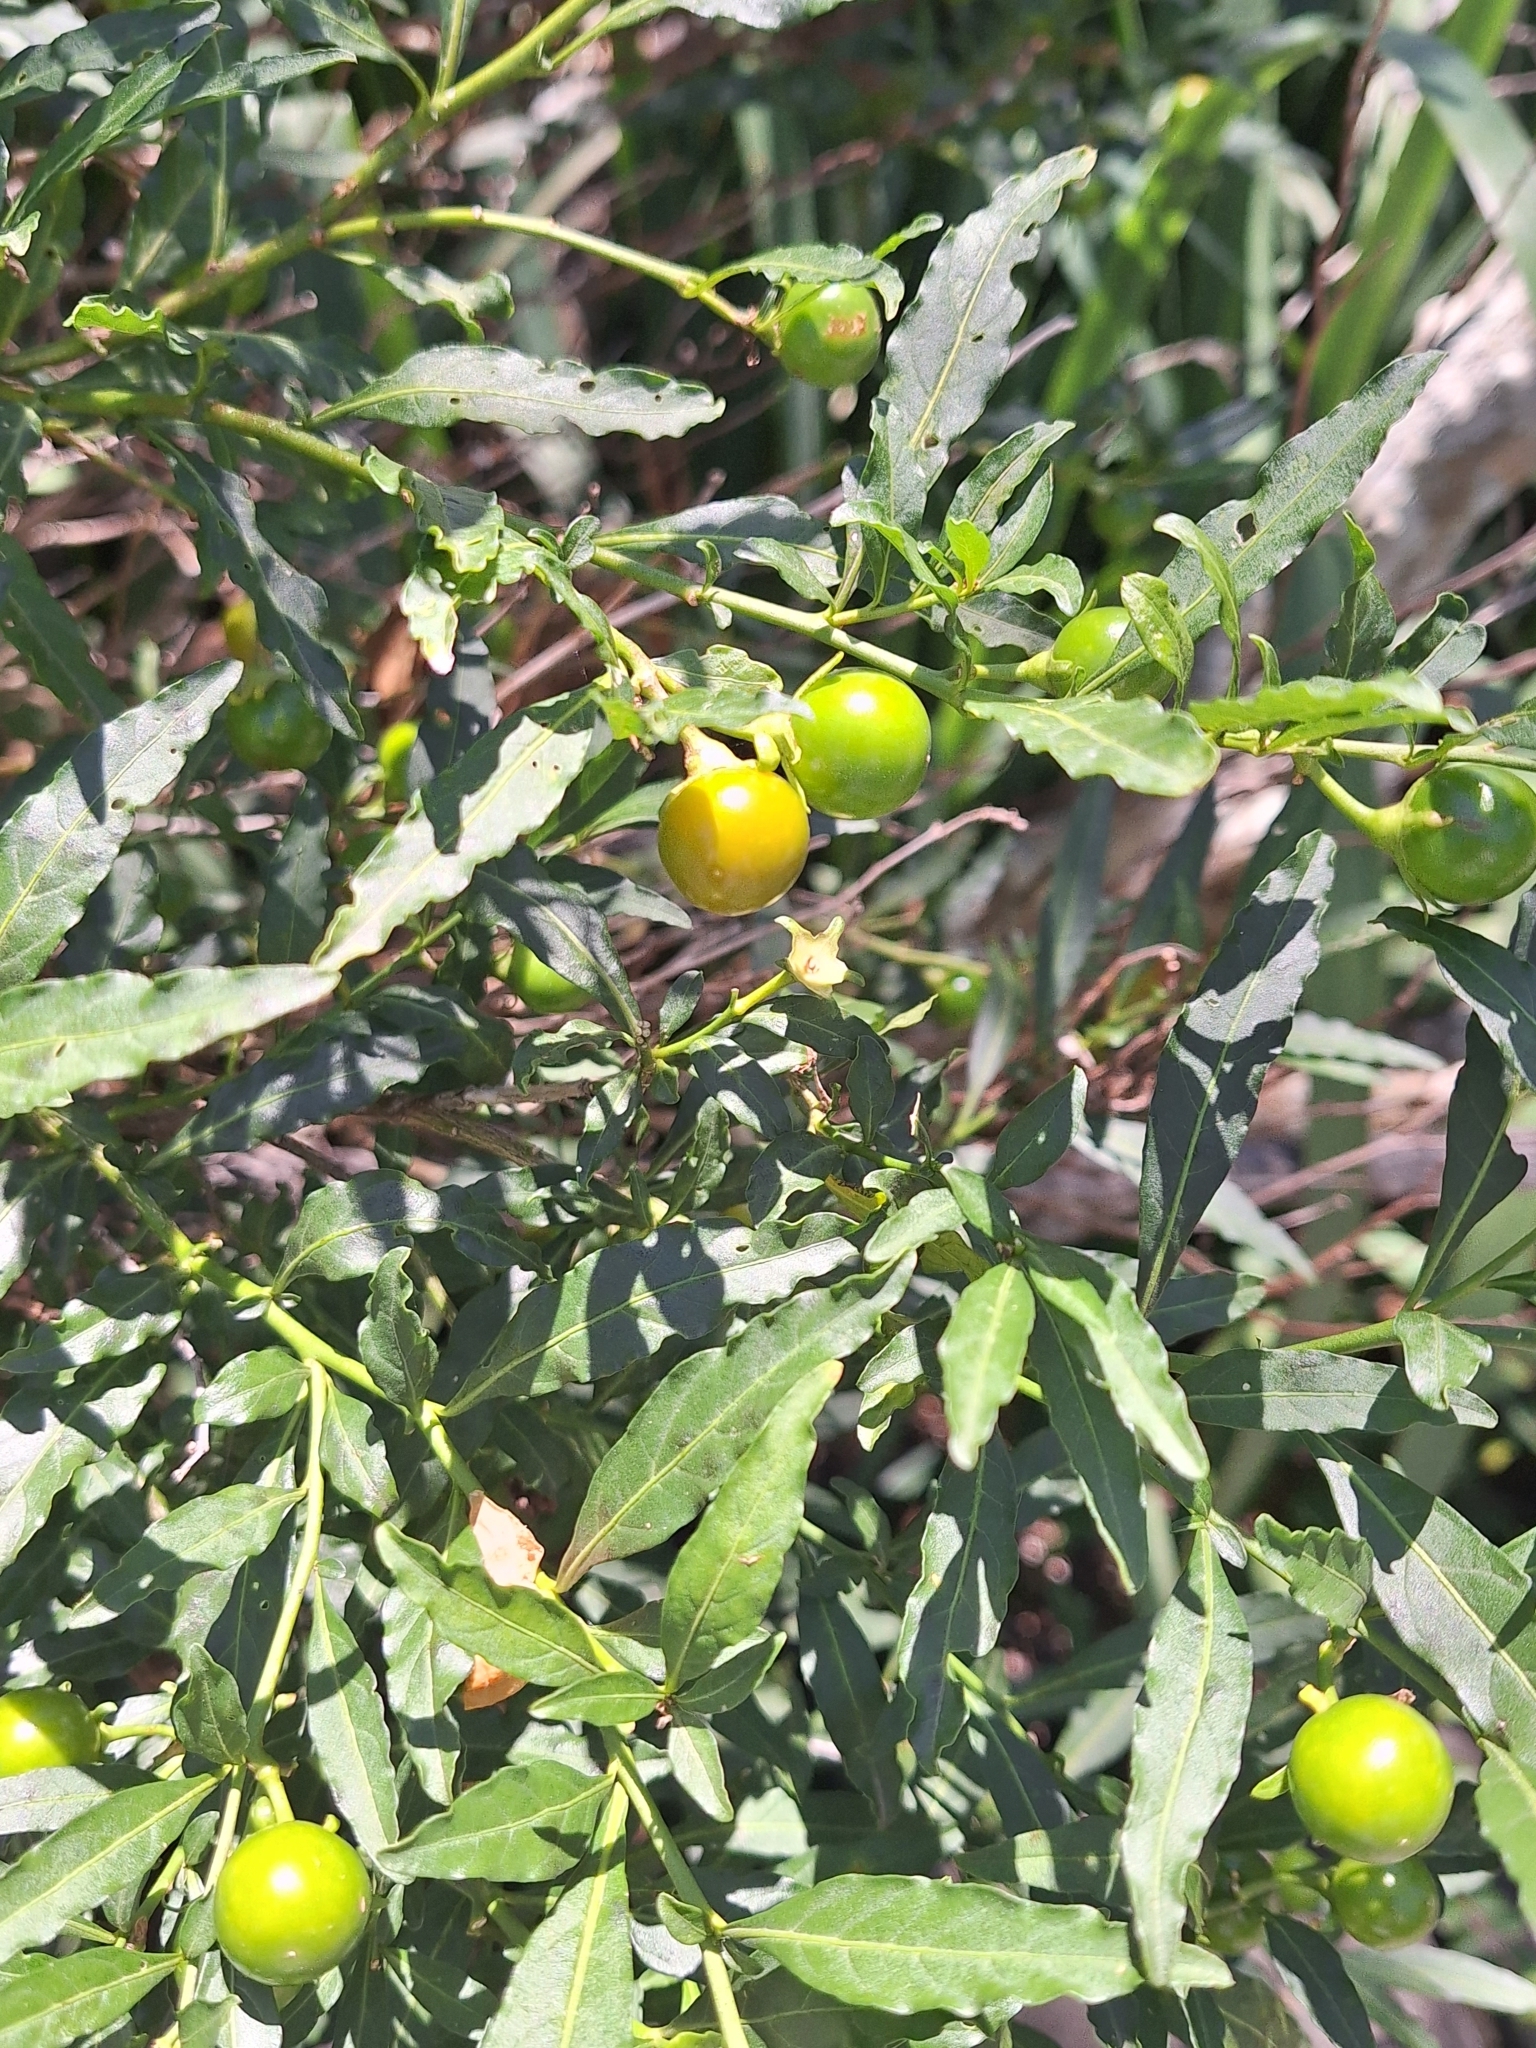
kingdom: Plantae
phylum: Tracheophyta
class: Magnoliopsida
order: Solanales
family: Solanaceae
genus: Solanum
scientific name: Solanum pseudocapsicum
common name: Jerusalem cherry
